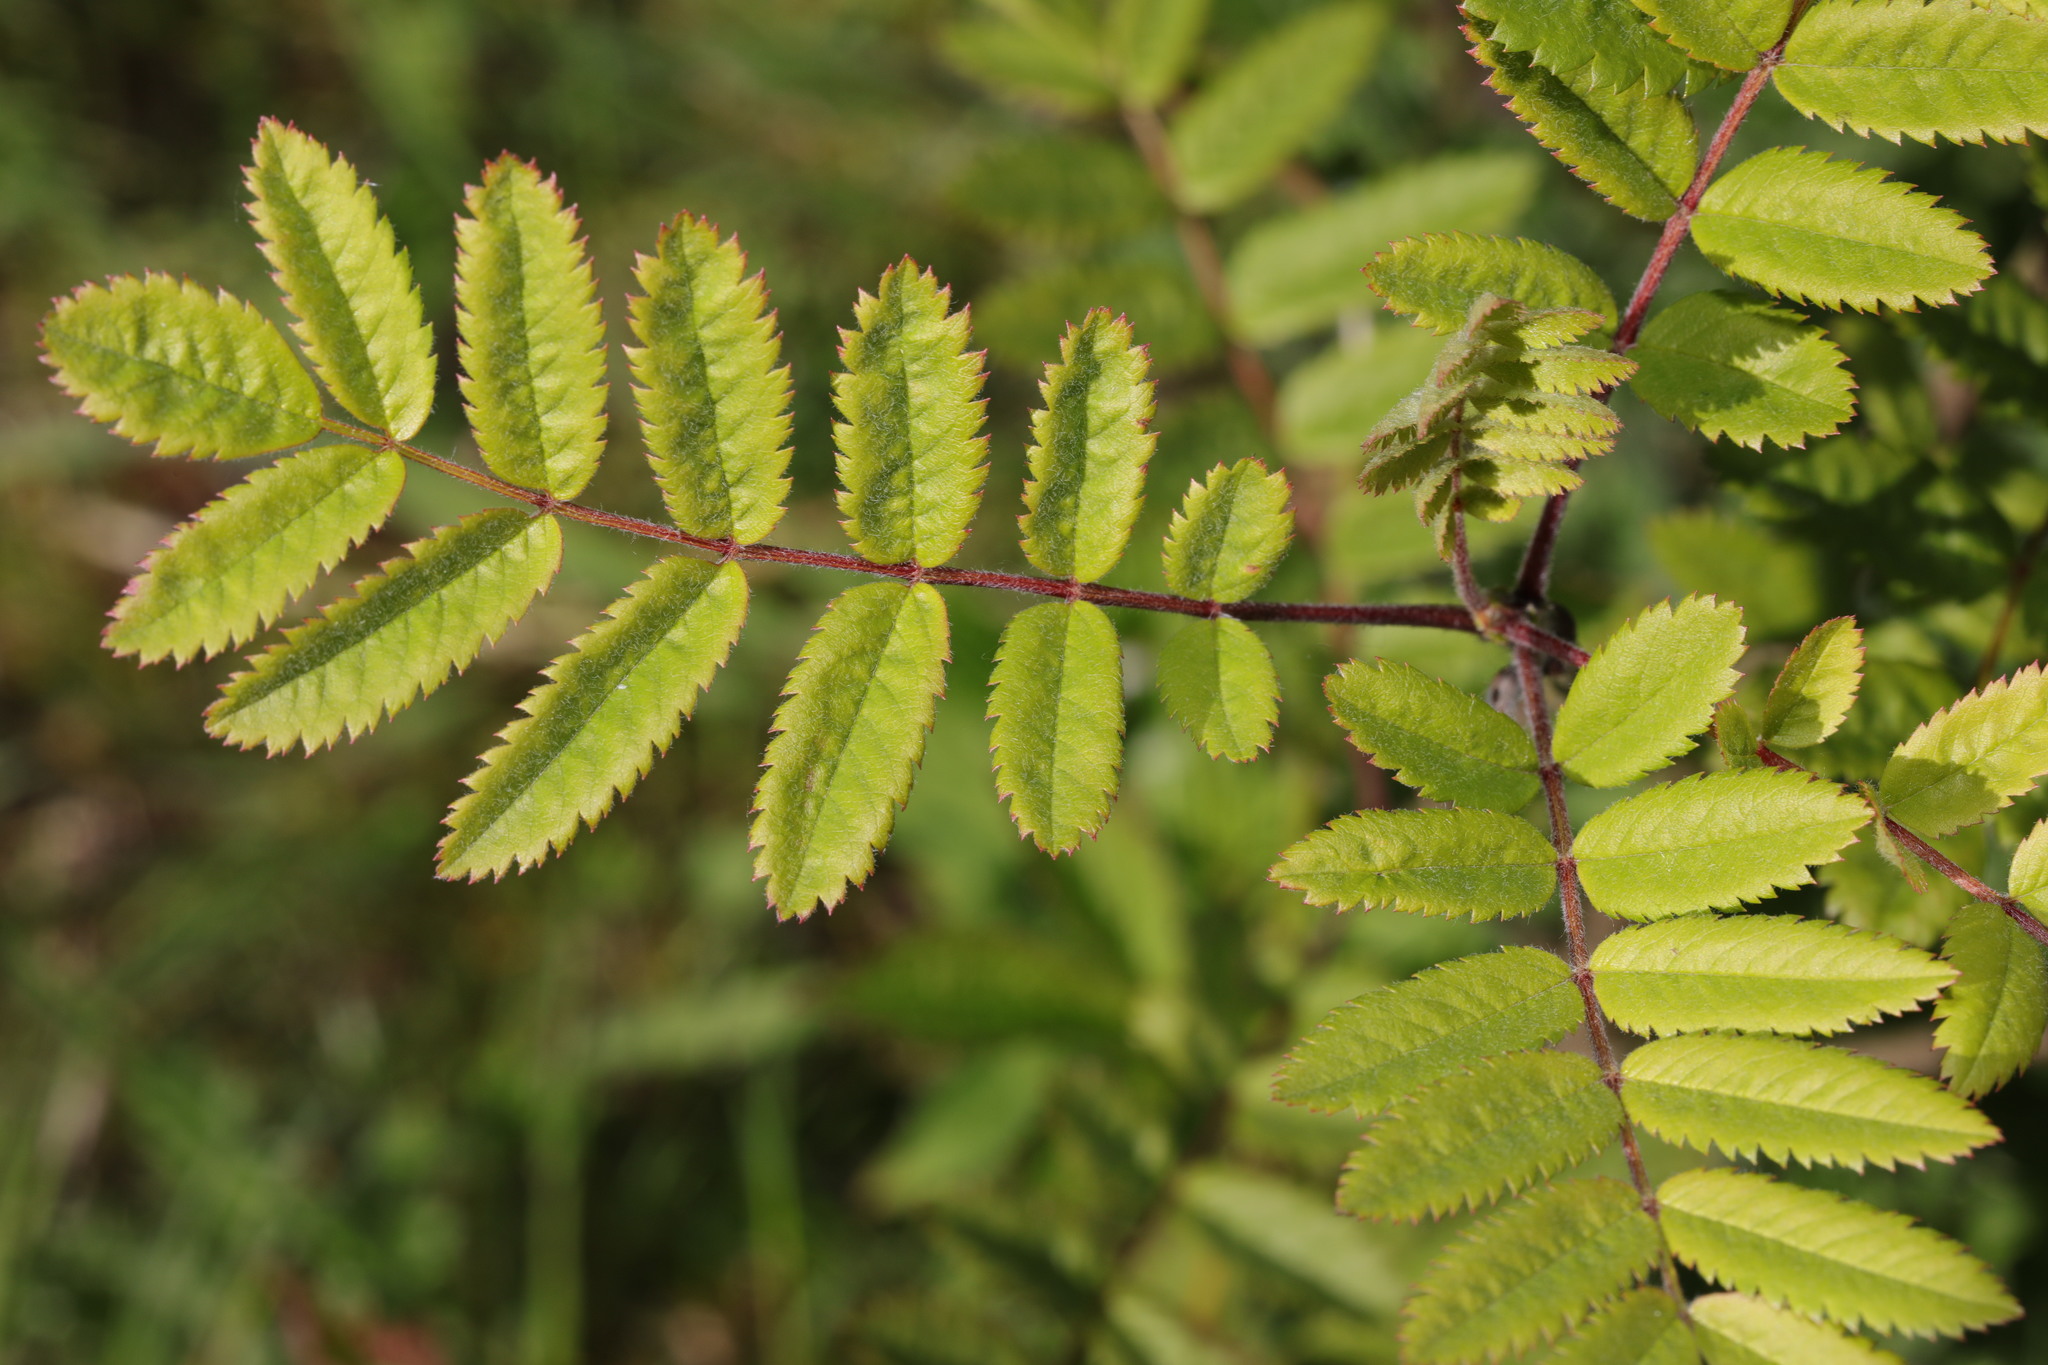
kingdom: Plantae
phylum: Tracheophyta
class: Magnoliopsida
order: Rosales
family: Rosaceae
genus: Sorbus
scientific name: Sorbus aucuparia
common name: Rowan
